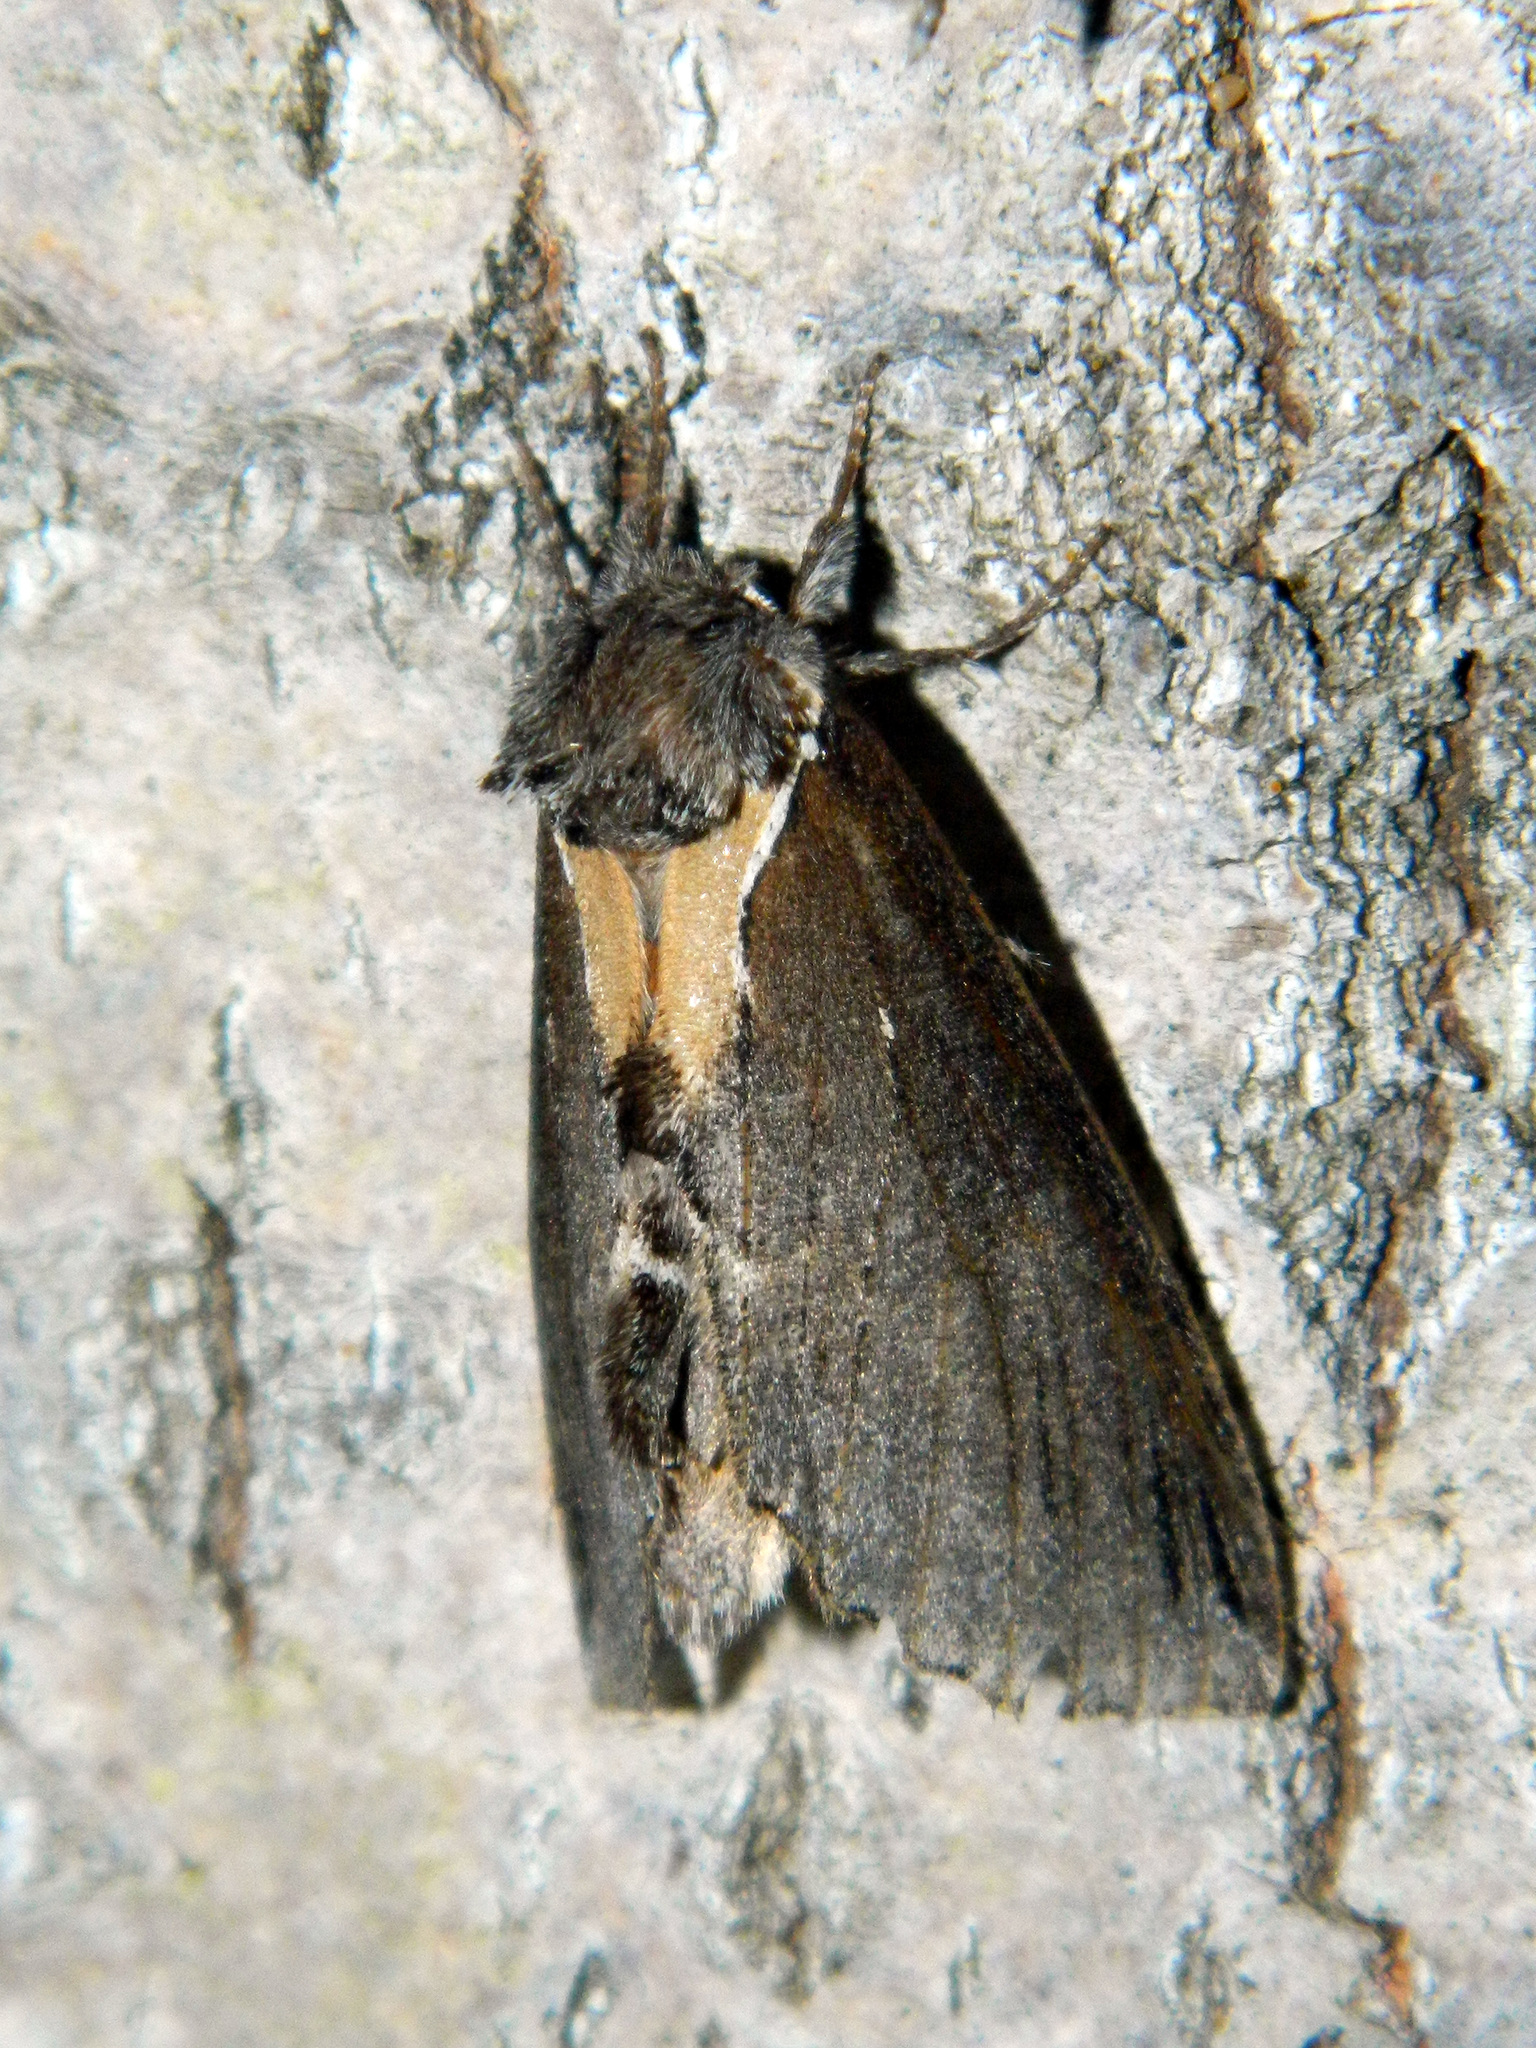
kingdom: Animalia
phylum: Arthropoda
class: Insecta
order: Lepidoptera
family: Notodontidae
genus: Pheosidea
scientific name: Pheosidea elegans
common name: Elegant prominent
